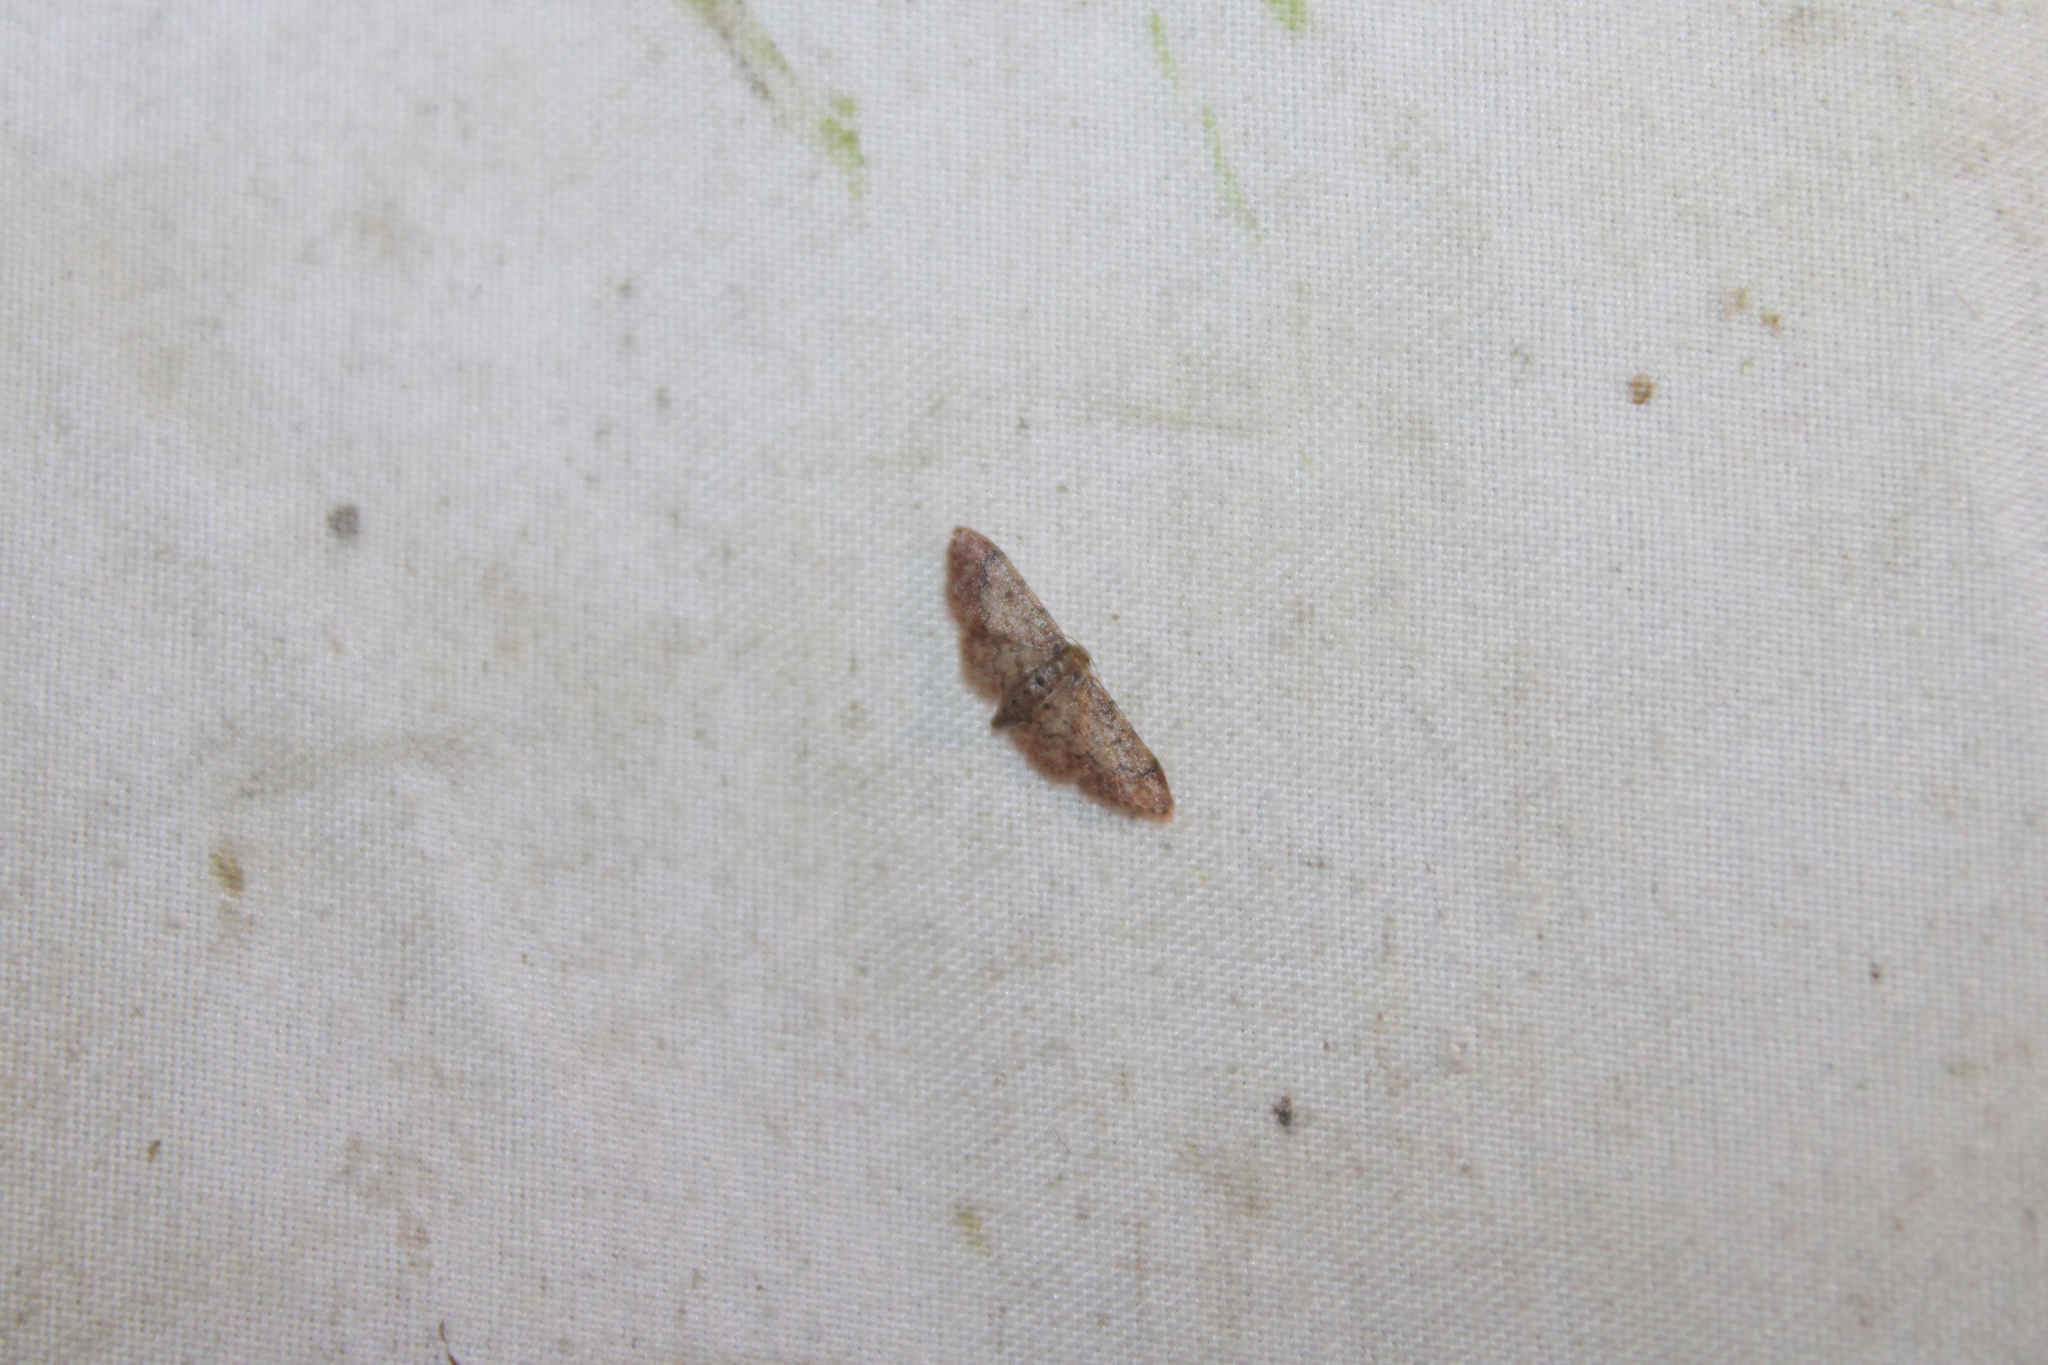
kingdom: Animalia
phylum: Arthropoda
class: Insecta
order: Lepidoptera
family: Geometridae
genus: Idaea
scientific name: Idaea demissaria
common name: Red-bordered wave
